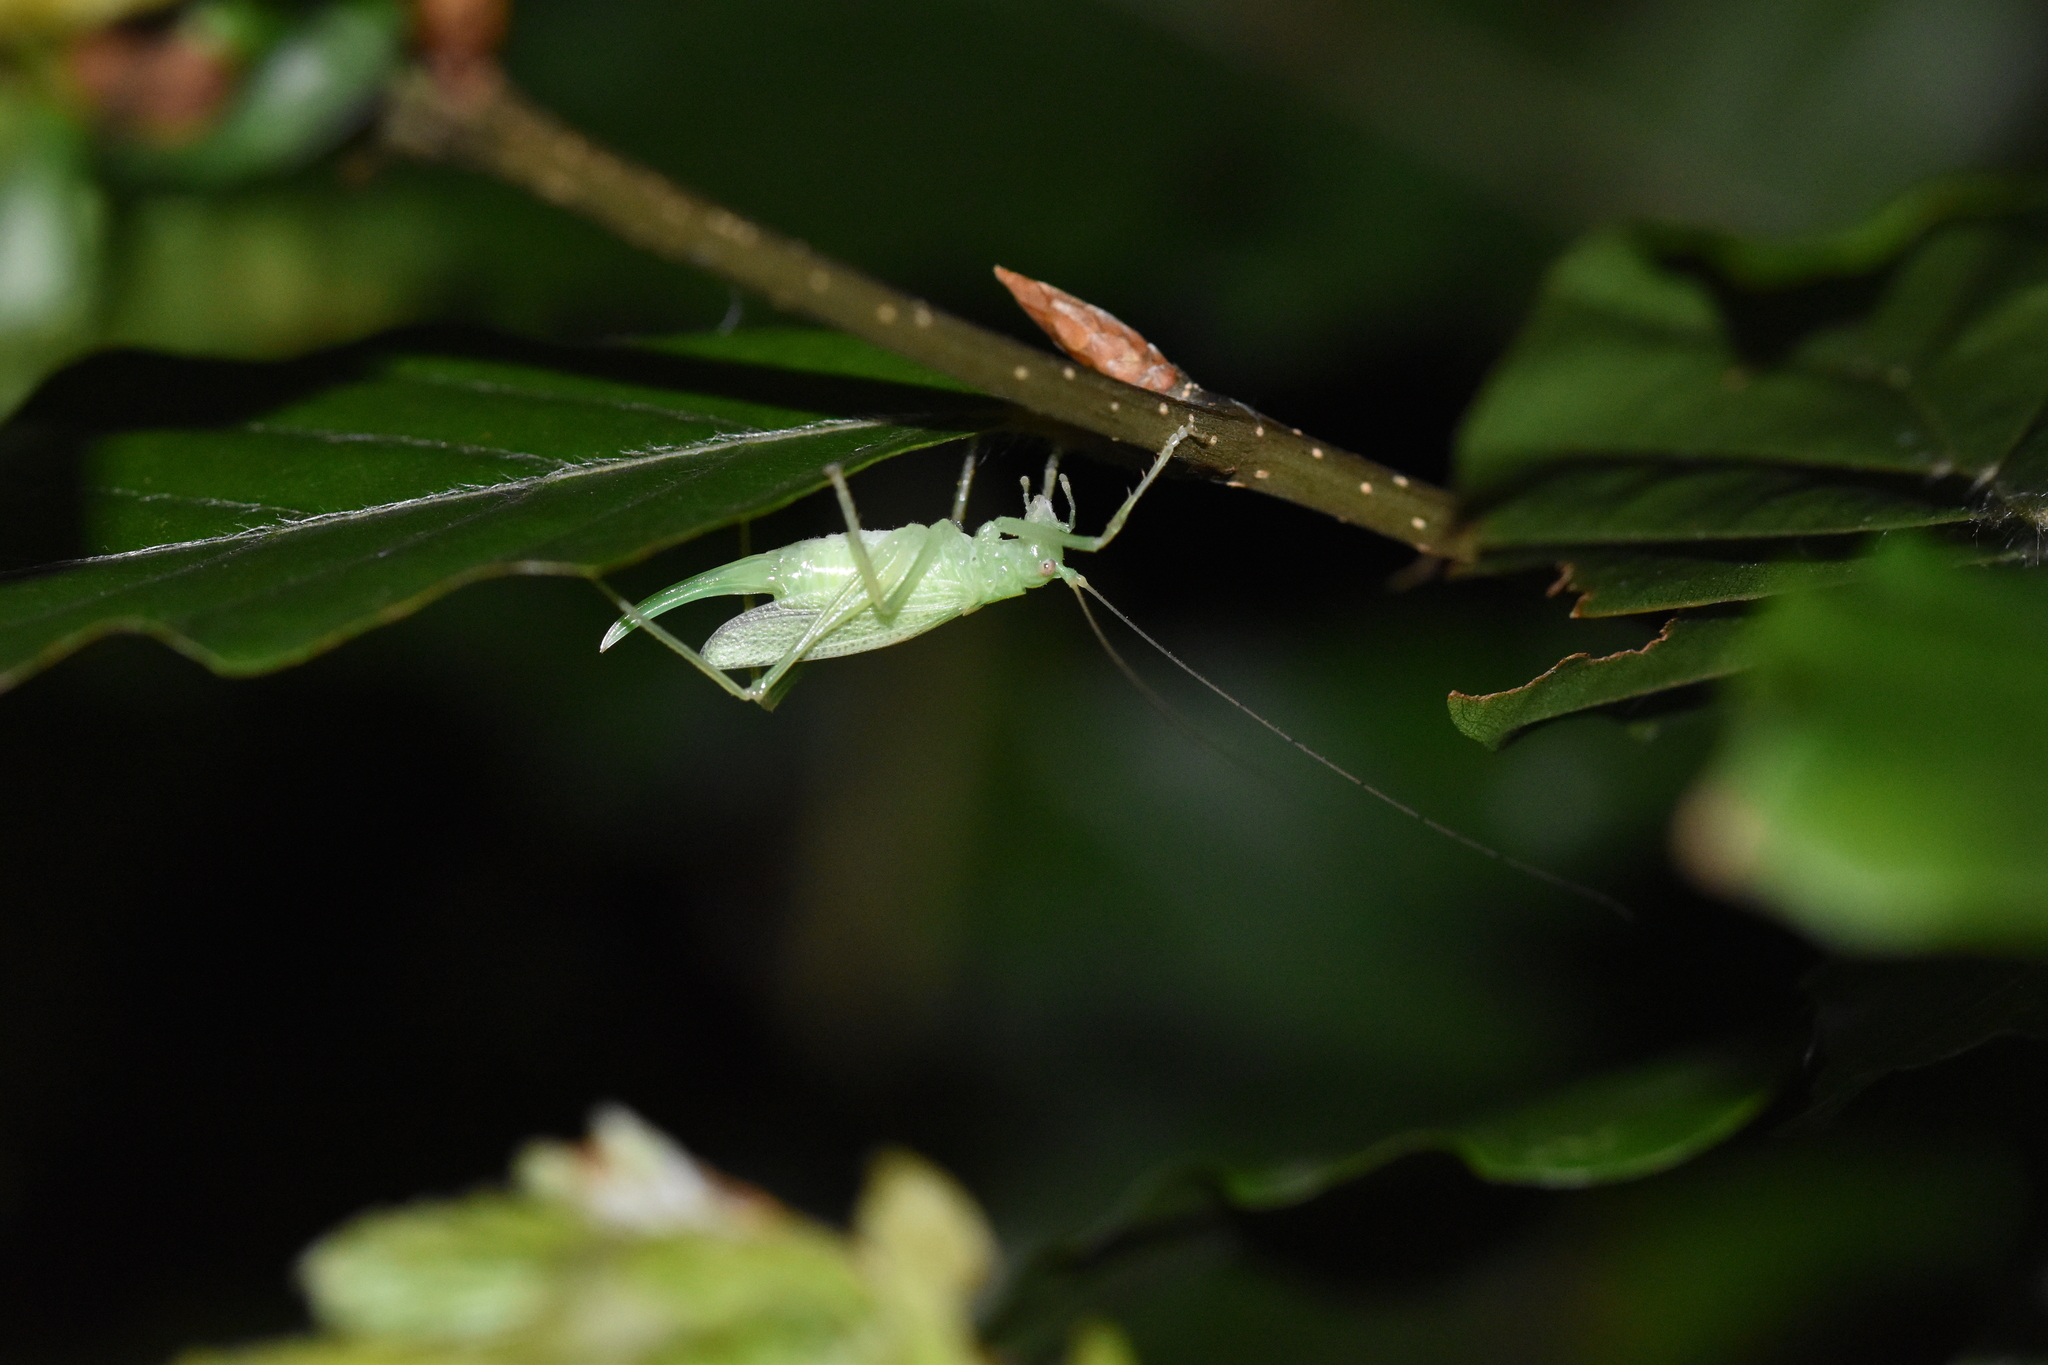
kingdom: Animalia
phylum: Arthropoda
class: Insecta
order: Orthoptera
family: Tettigoniidae
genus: Meconema
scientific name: Meconema thalassinum
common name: Oak bush-cricket
